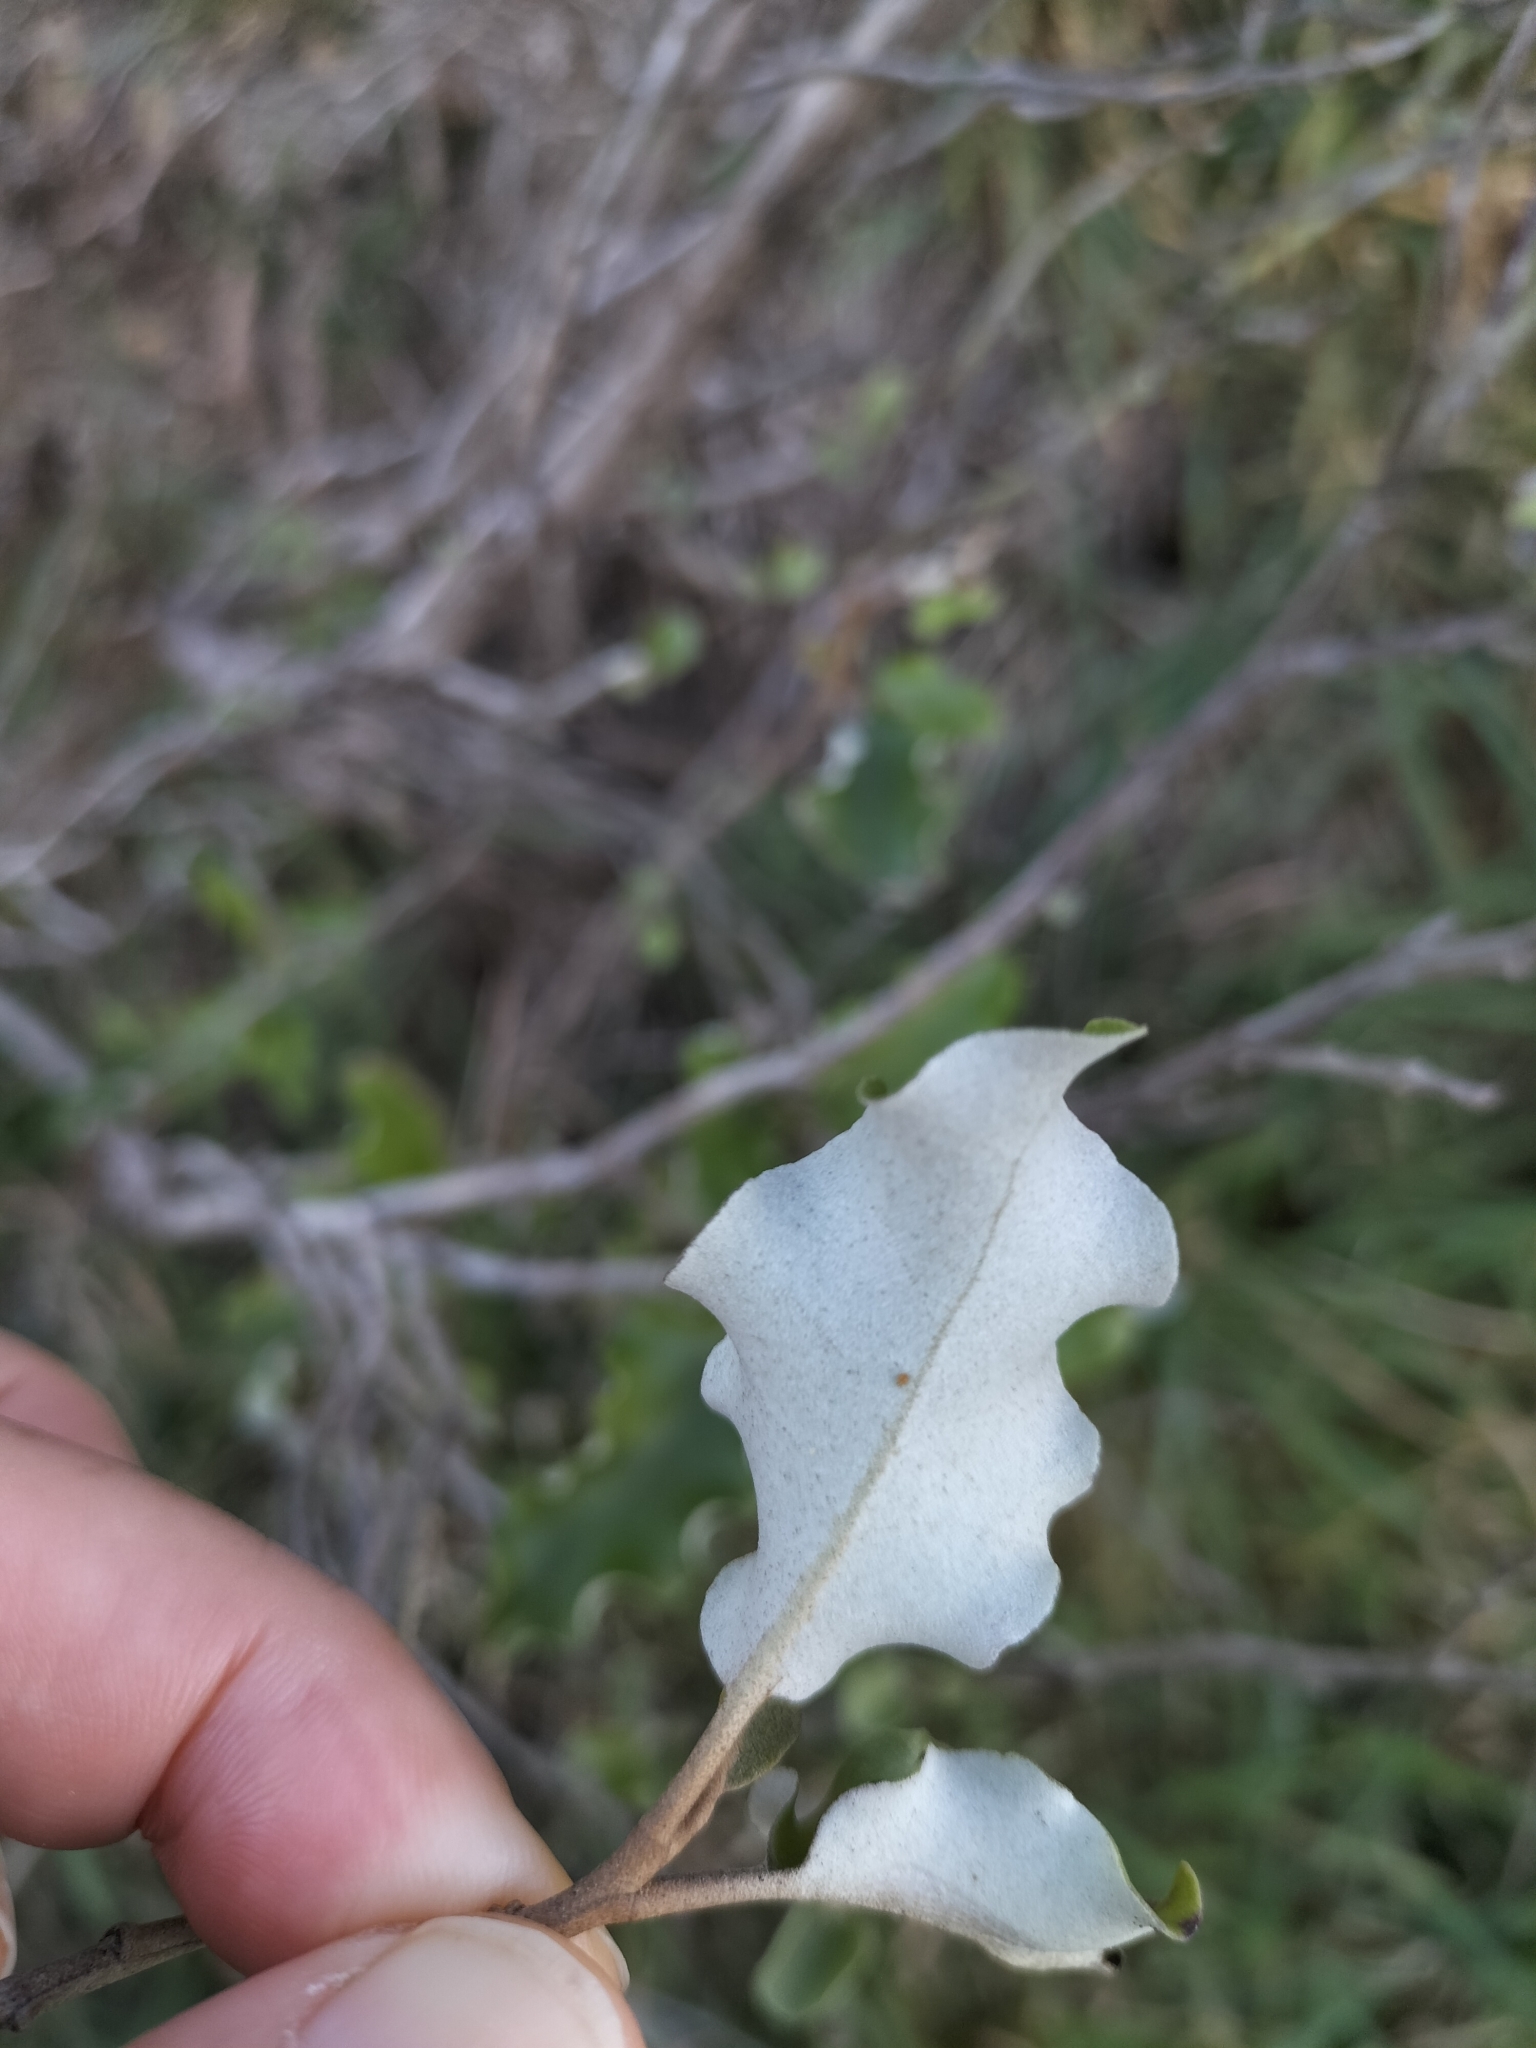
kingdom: Plantae
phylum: Tracheophyta
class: Magnoliopsida
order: Asterales
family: Asteraceae
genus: Olearia
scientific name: Olearia paniculata
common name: Akiraho
